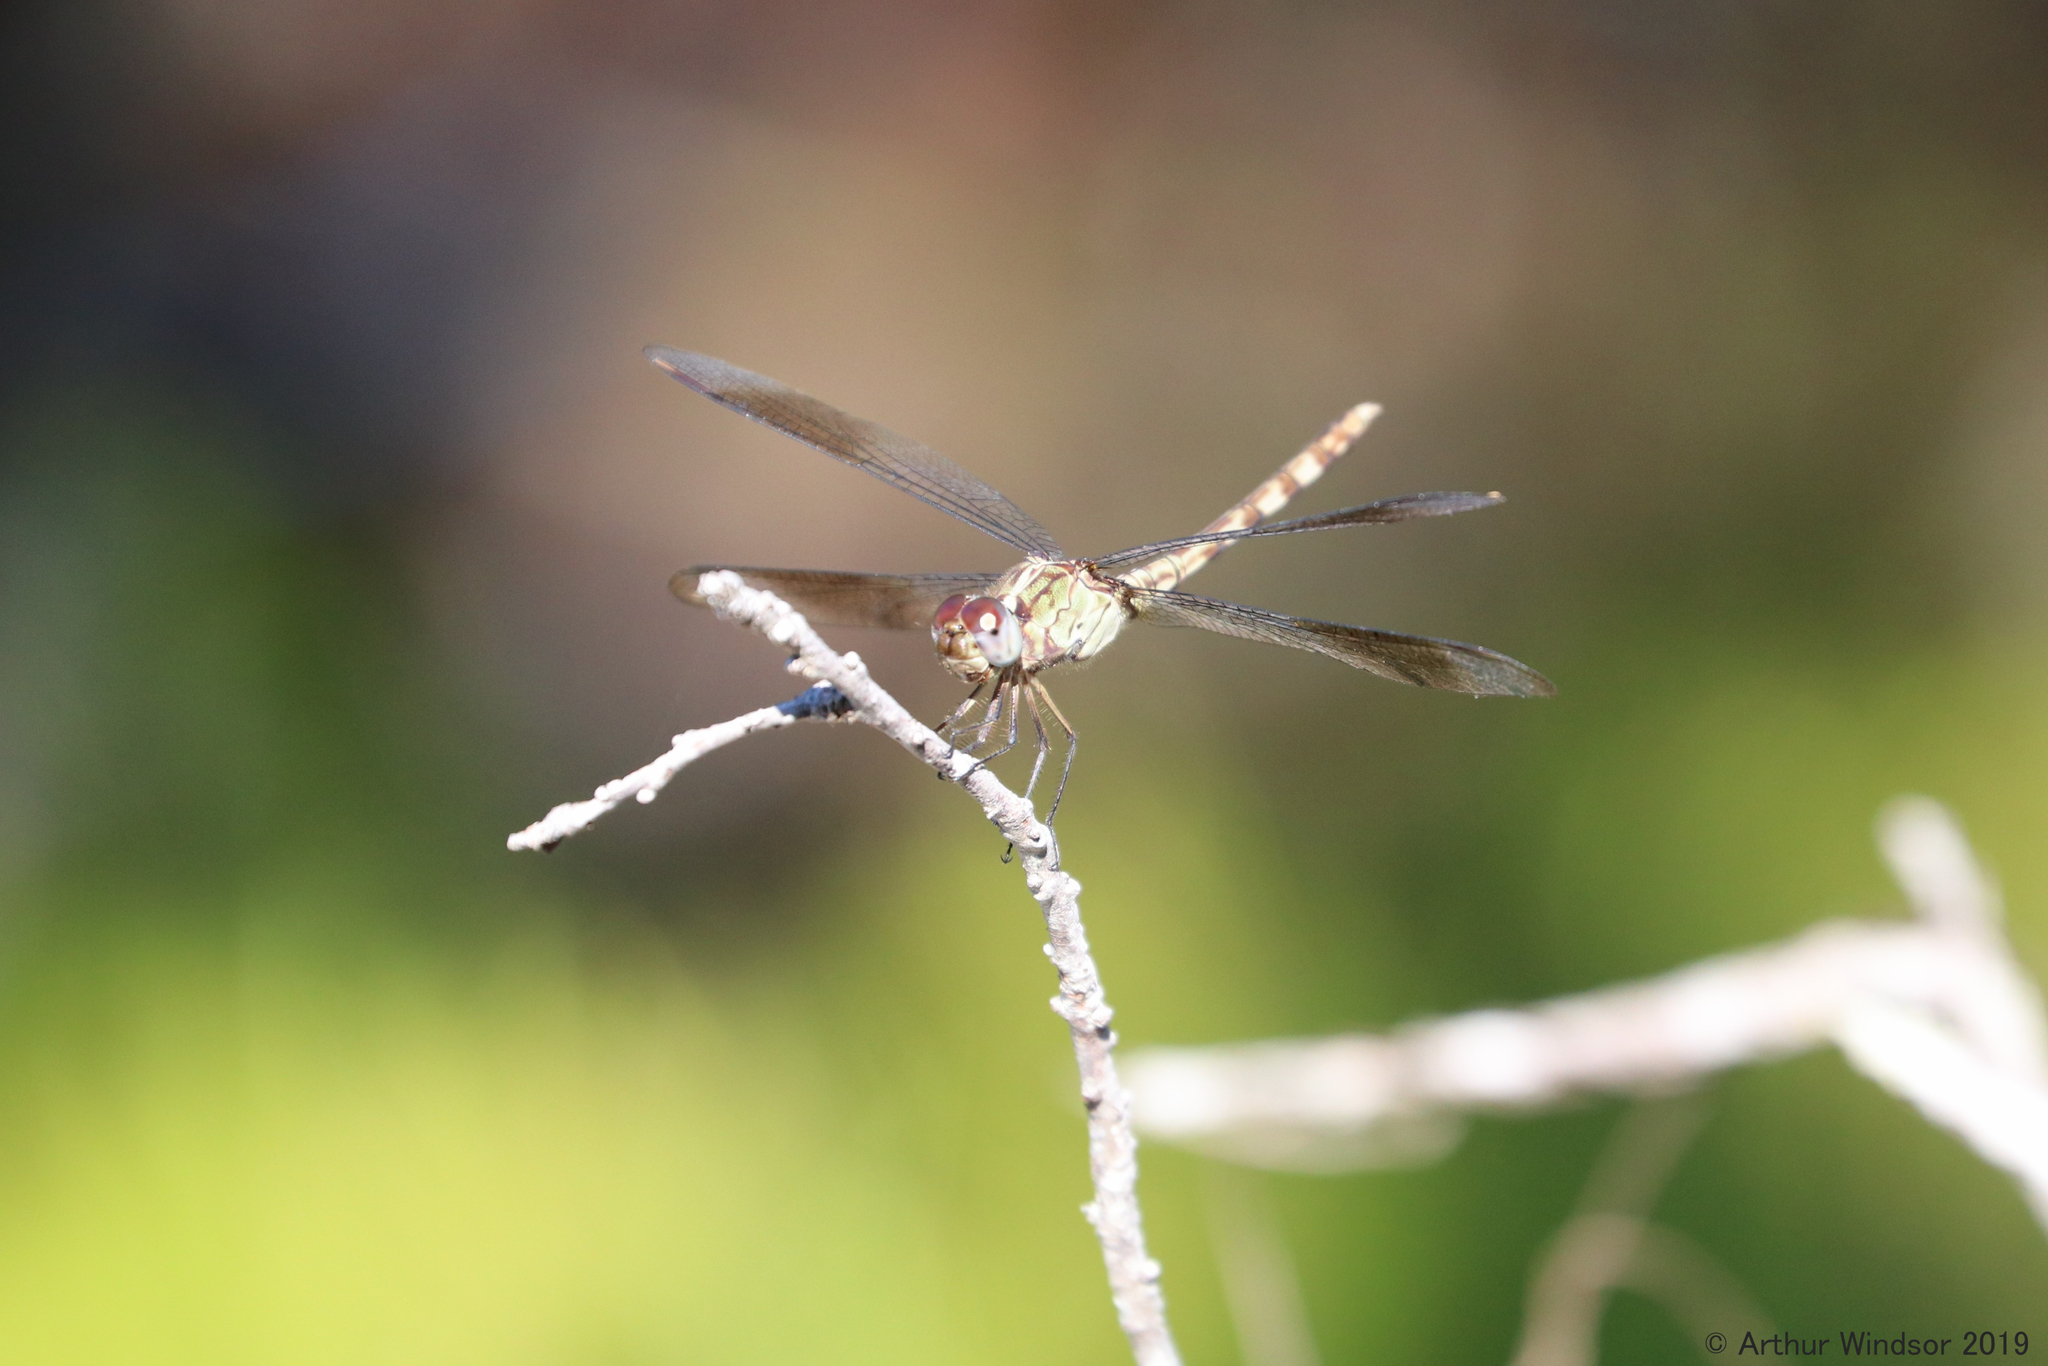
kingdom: Animalia
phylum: Arthropoda
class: Insecta
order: Odonata
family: Libellulidae
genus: Erythrodiplax
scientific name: Erythrodiplax umbrata
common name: Band-winged dragonlet
